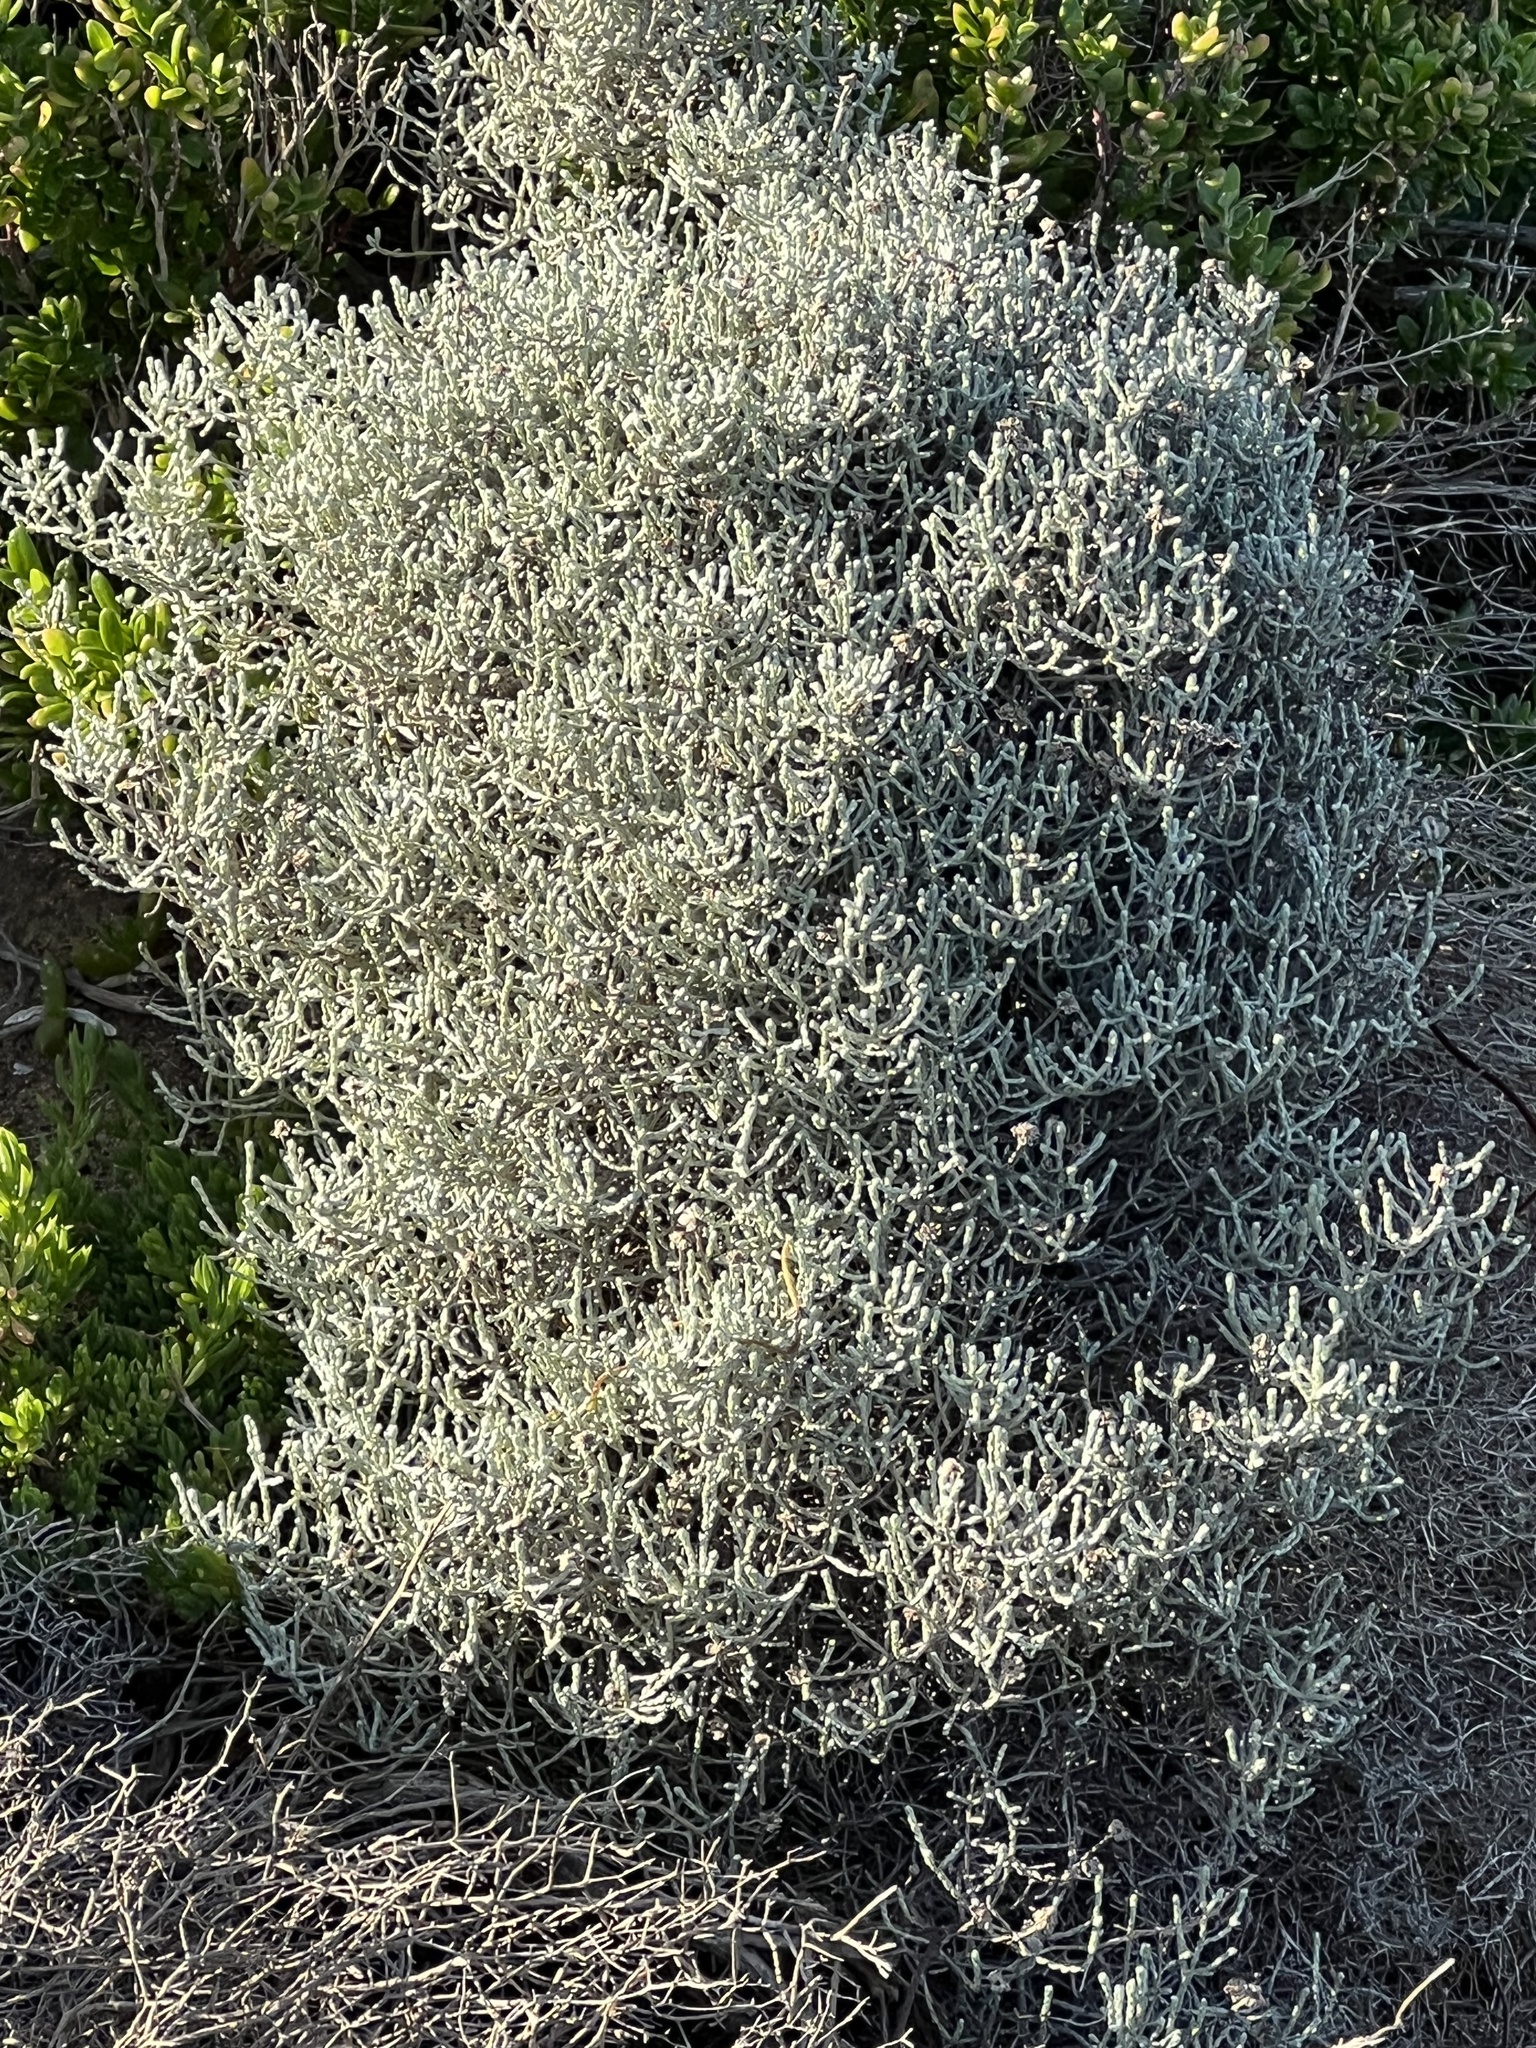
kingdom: Plantae
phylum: Tracheophyta
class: Magnoliopsida
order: Asterales
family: Asteraceae
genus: Calocephalus
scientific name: Calocephalus brownii
